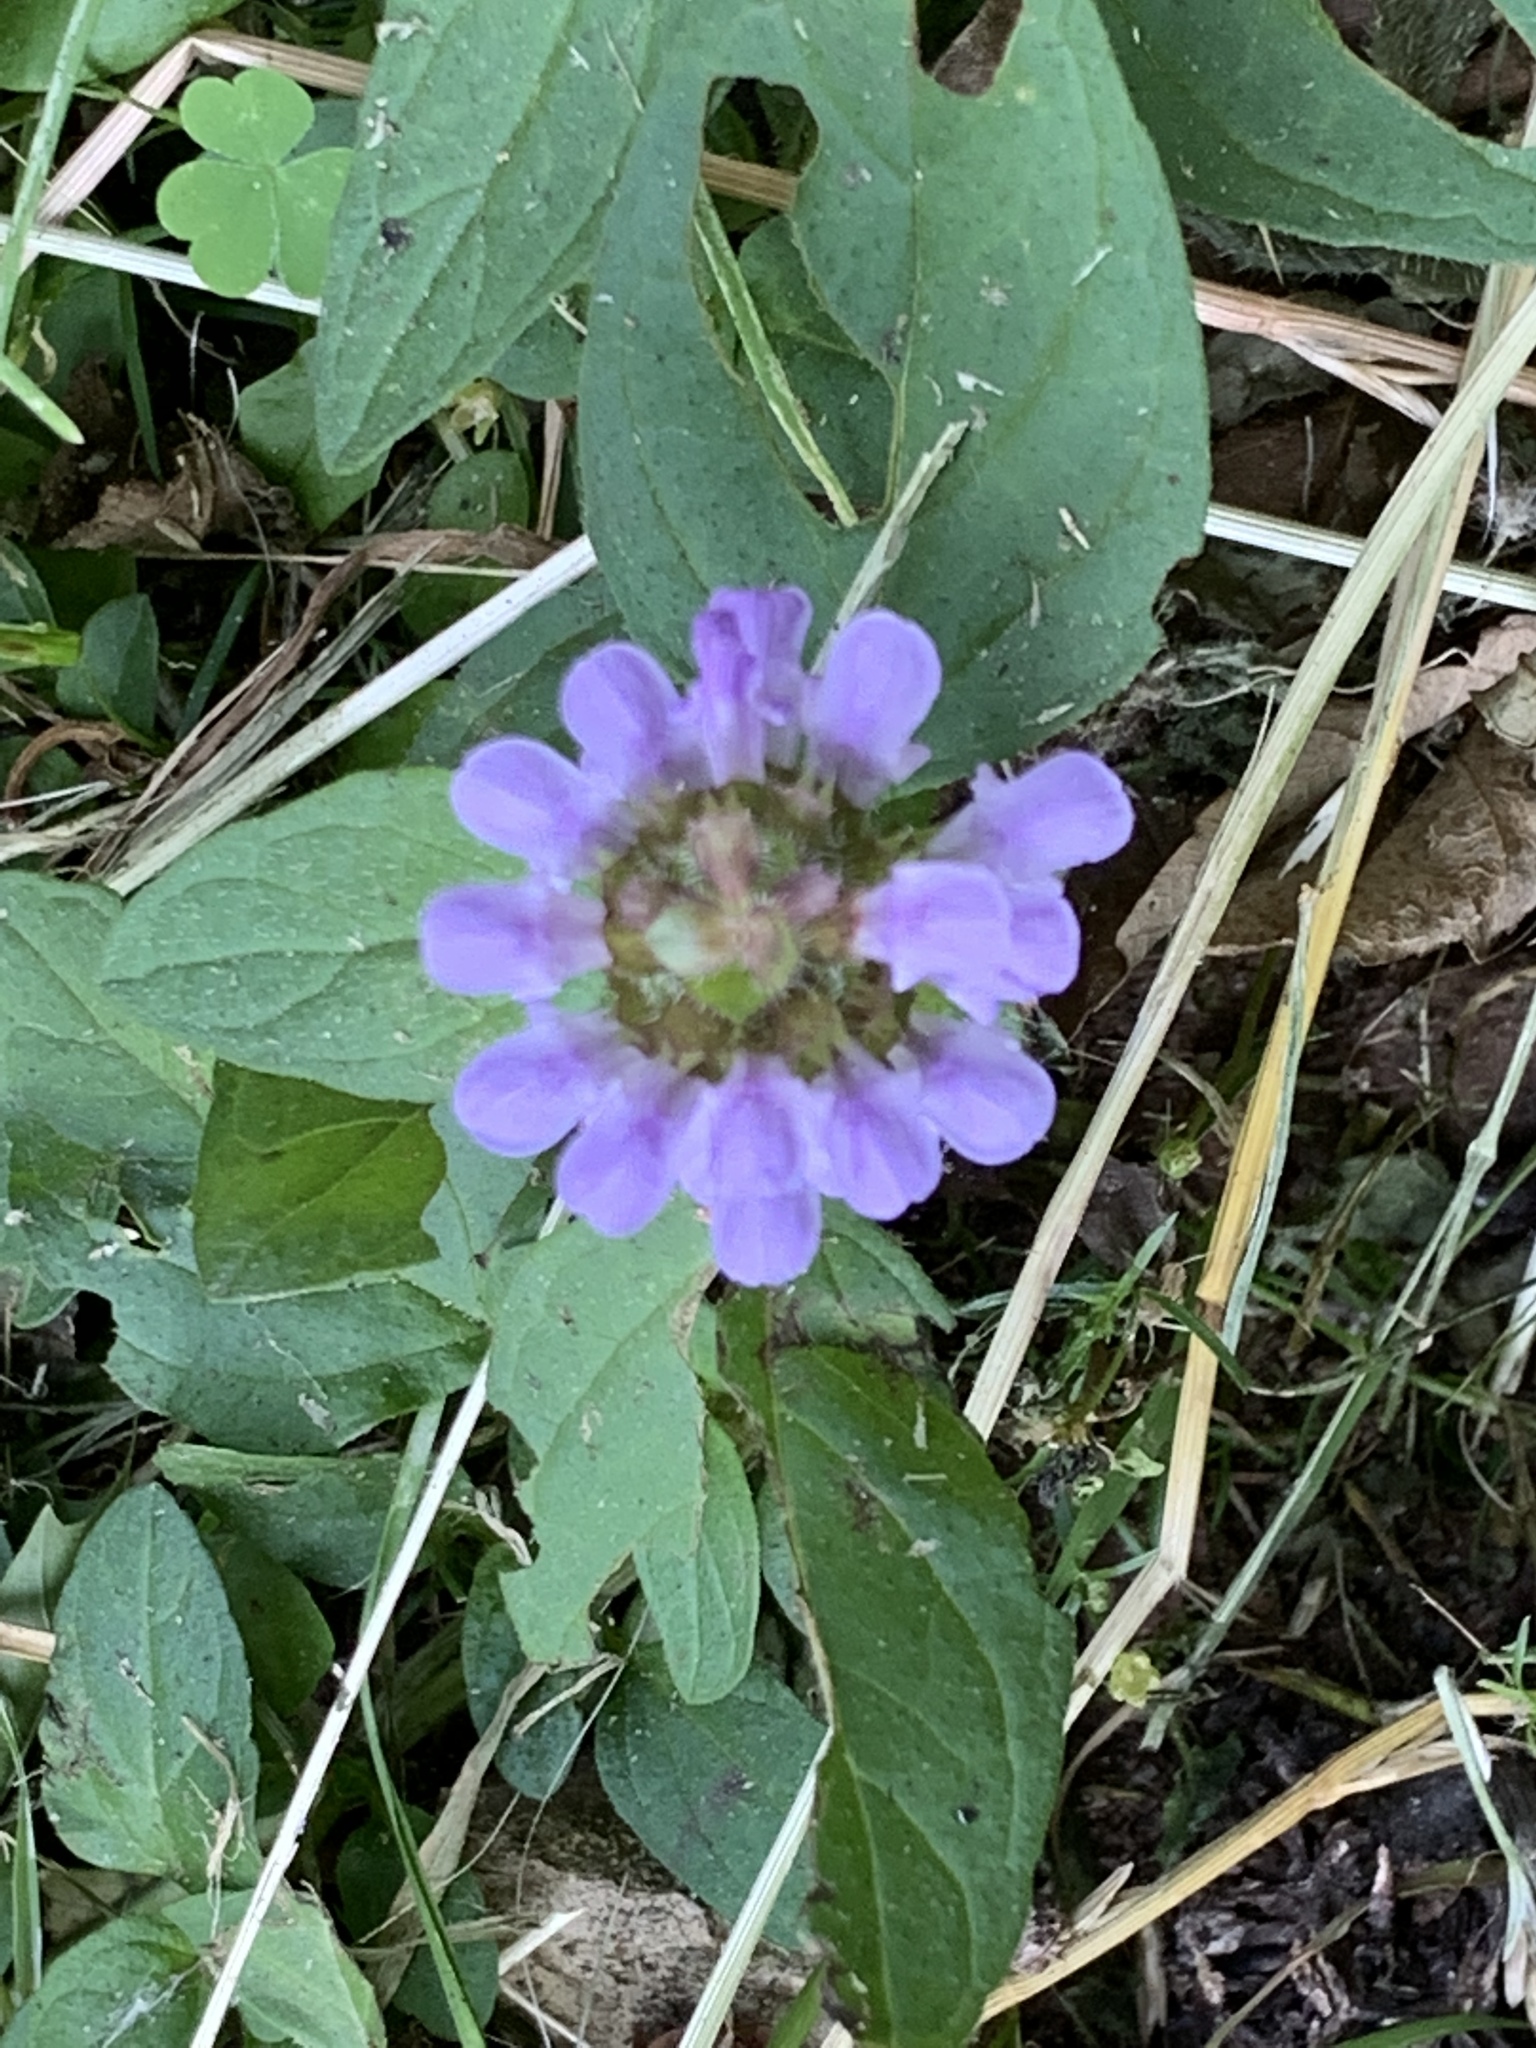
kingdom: Plantae
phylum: Tracheophyta
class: Magnoliopsida
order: Lamiales
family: Lamiaceae
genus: Prunella
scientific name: Prunella vulgaris
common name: Heal-all
